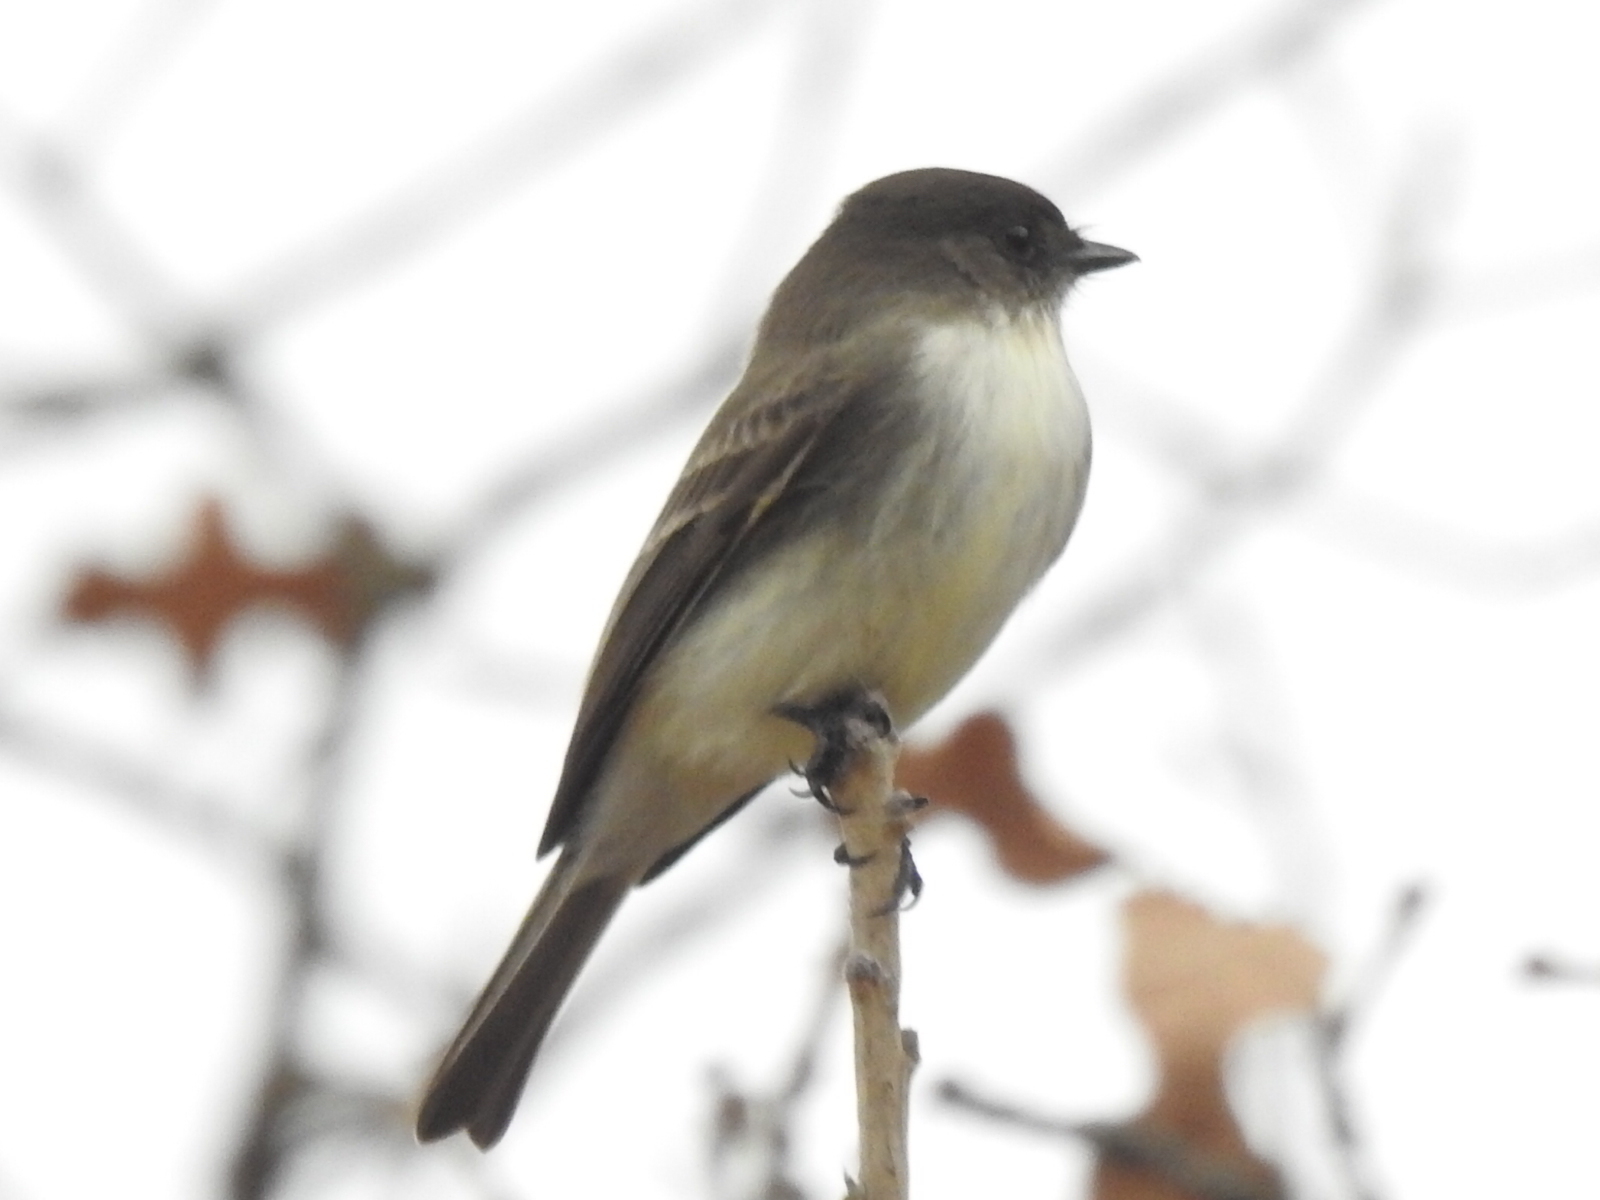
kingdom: Animalia
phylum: Chordata
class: Aves
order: Passeriformes
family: Tyrannidae
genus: Sayornis
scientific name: Sayornis phoebe
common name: Eastern phoebe
